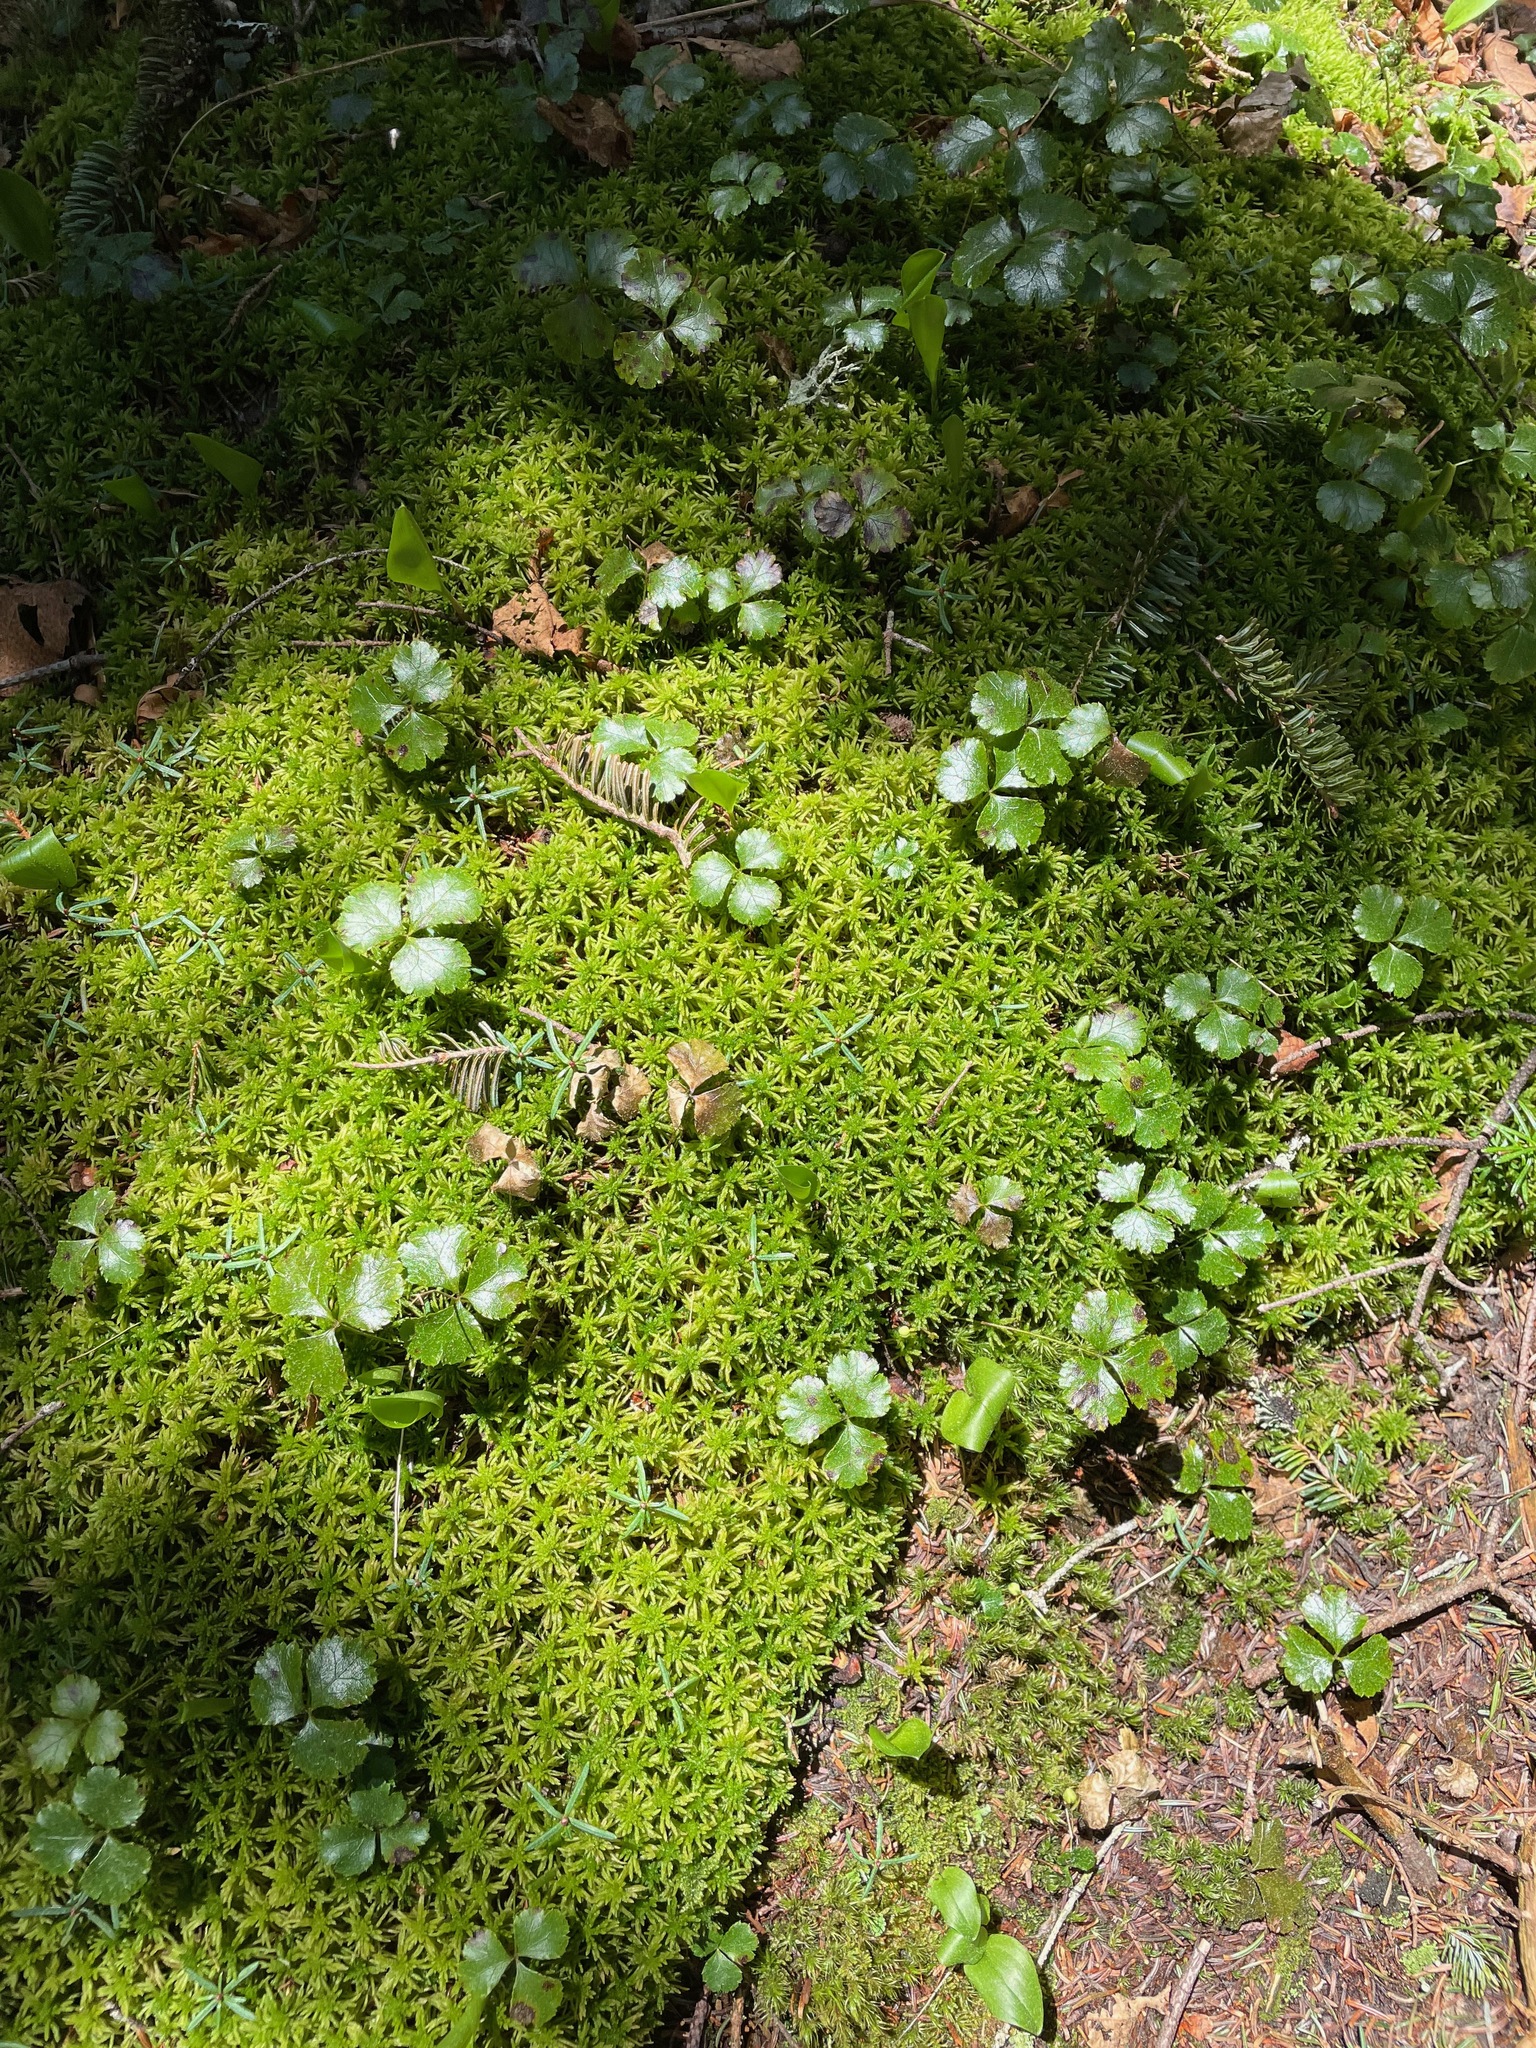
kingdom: Plantae
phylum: Tracheophyta
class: Magnoliopsida
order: Ranunculales
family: Ranunculaceae
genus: Coptis
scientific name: Coptis trifolia
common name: Canker-root
